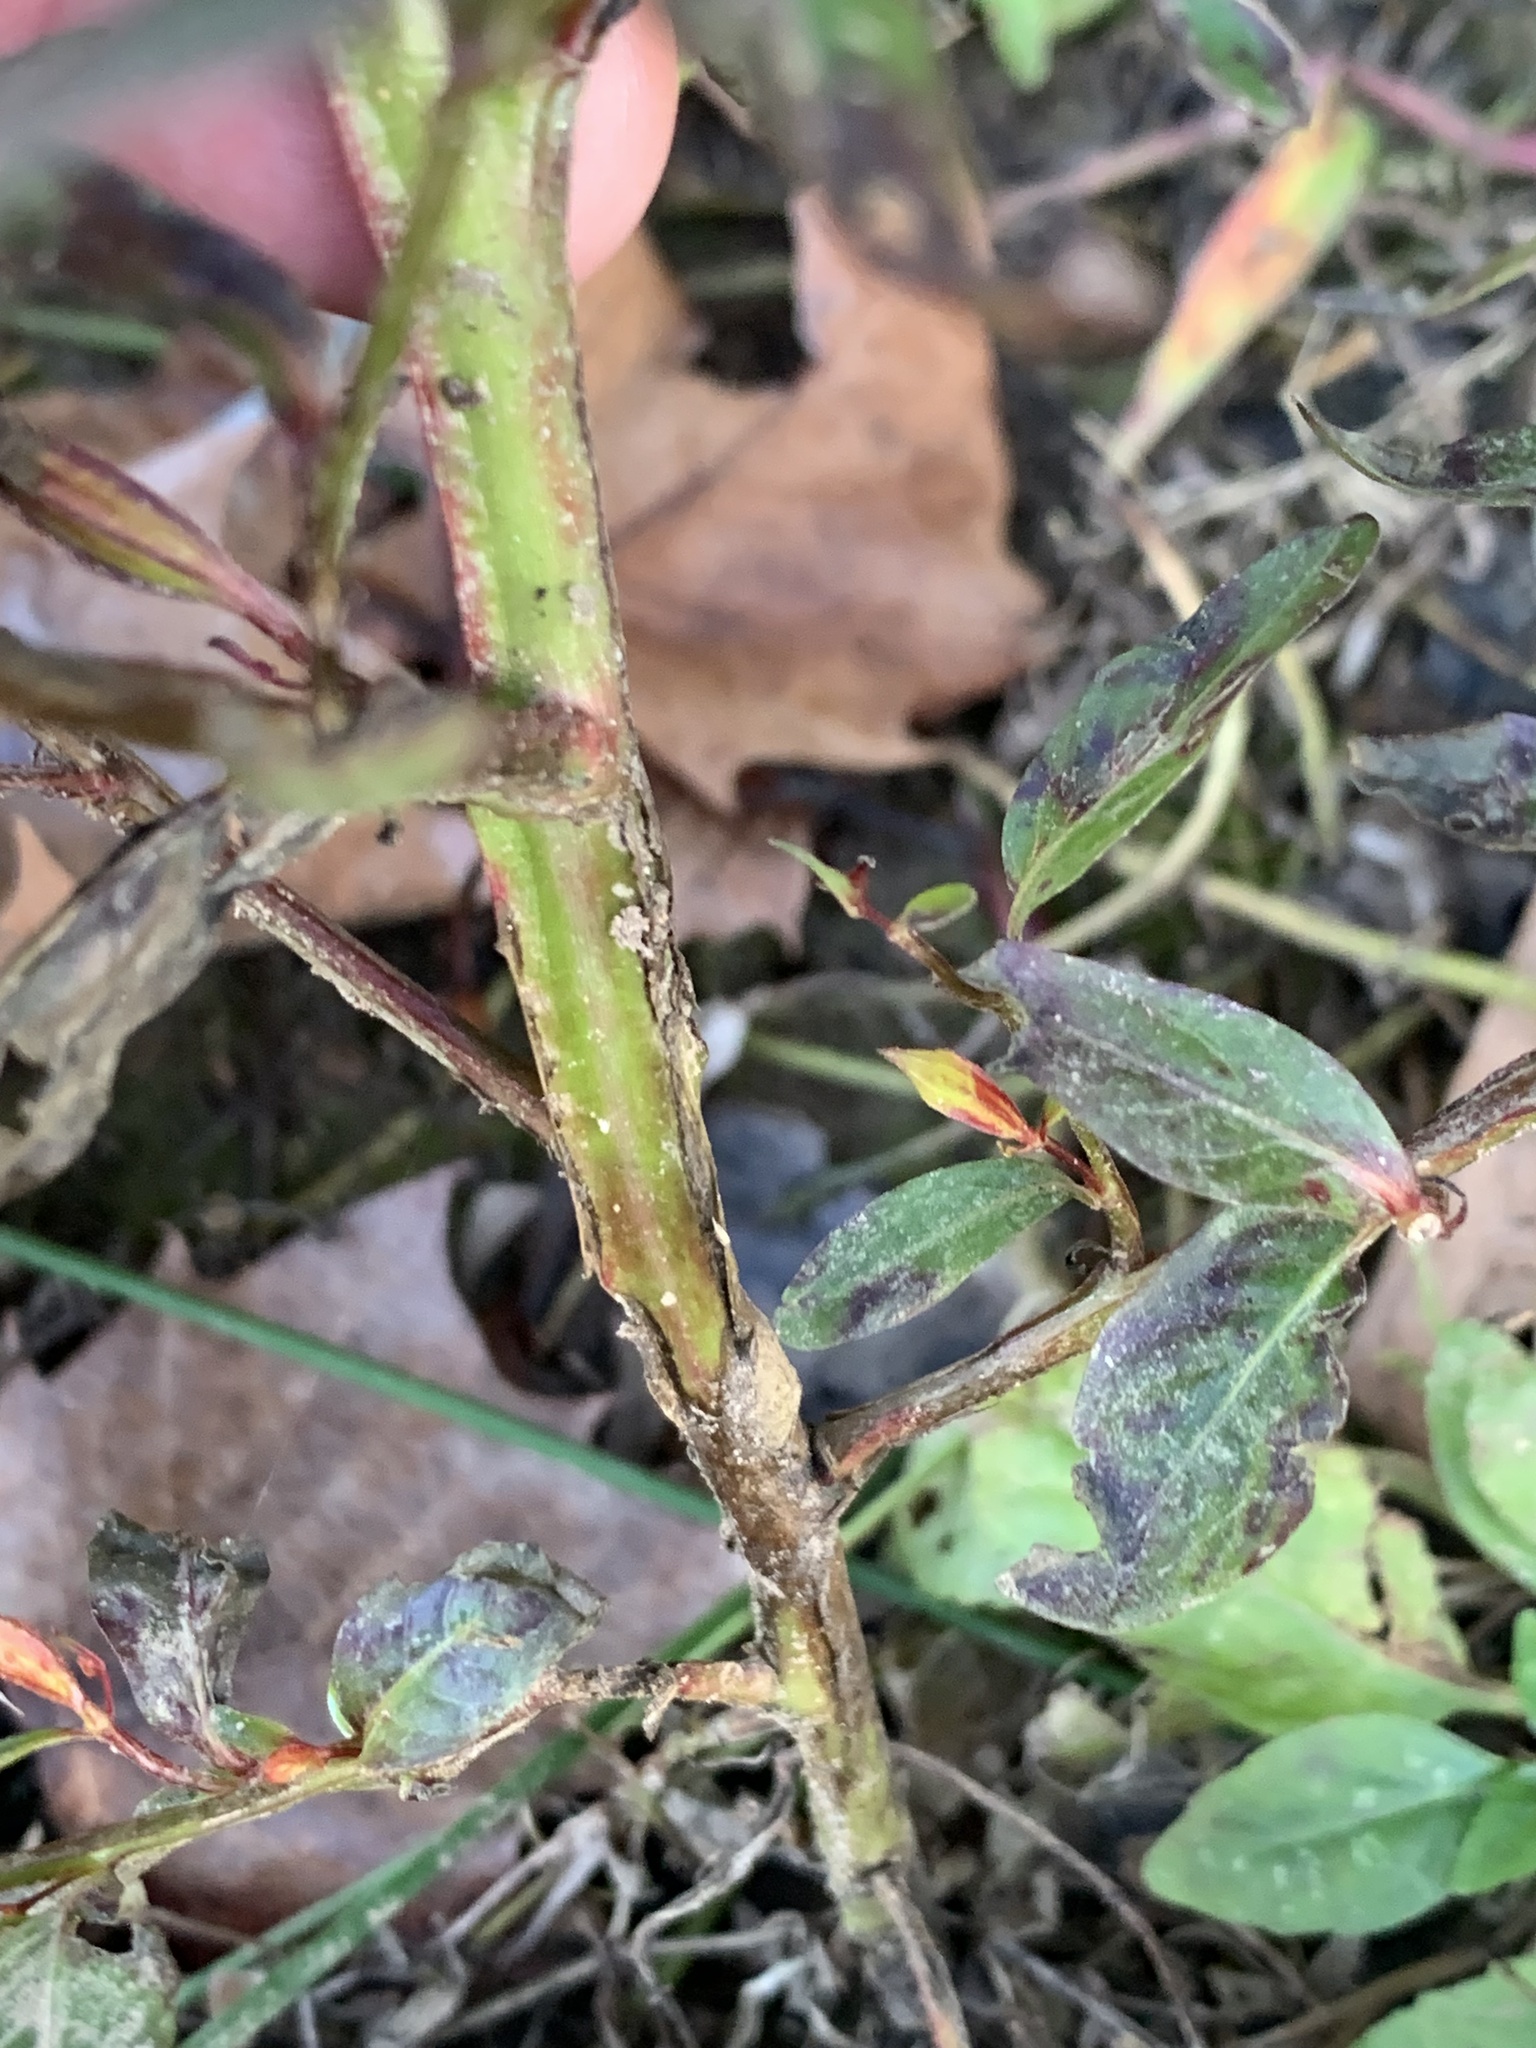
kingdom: Plantae
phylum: Tracheophyta
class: Magnoliopsida
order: Myrtales
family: Onagraceae
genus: Ludwigia
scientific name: Ludwigia decurrens
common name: Winged water-primrose
